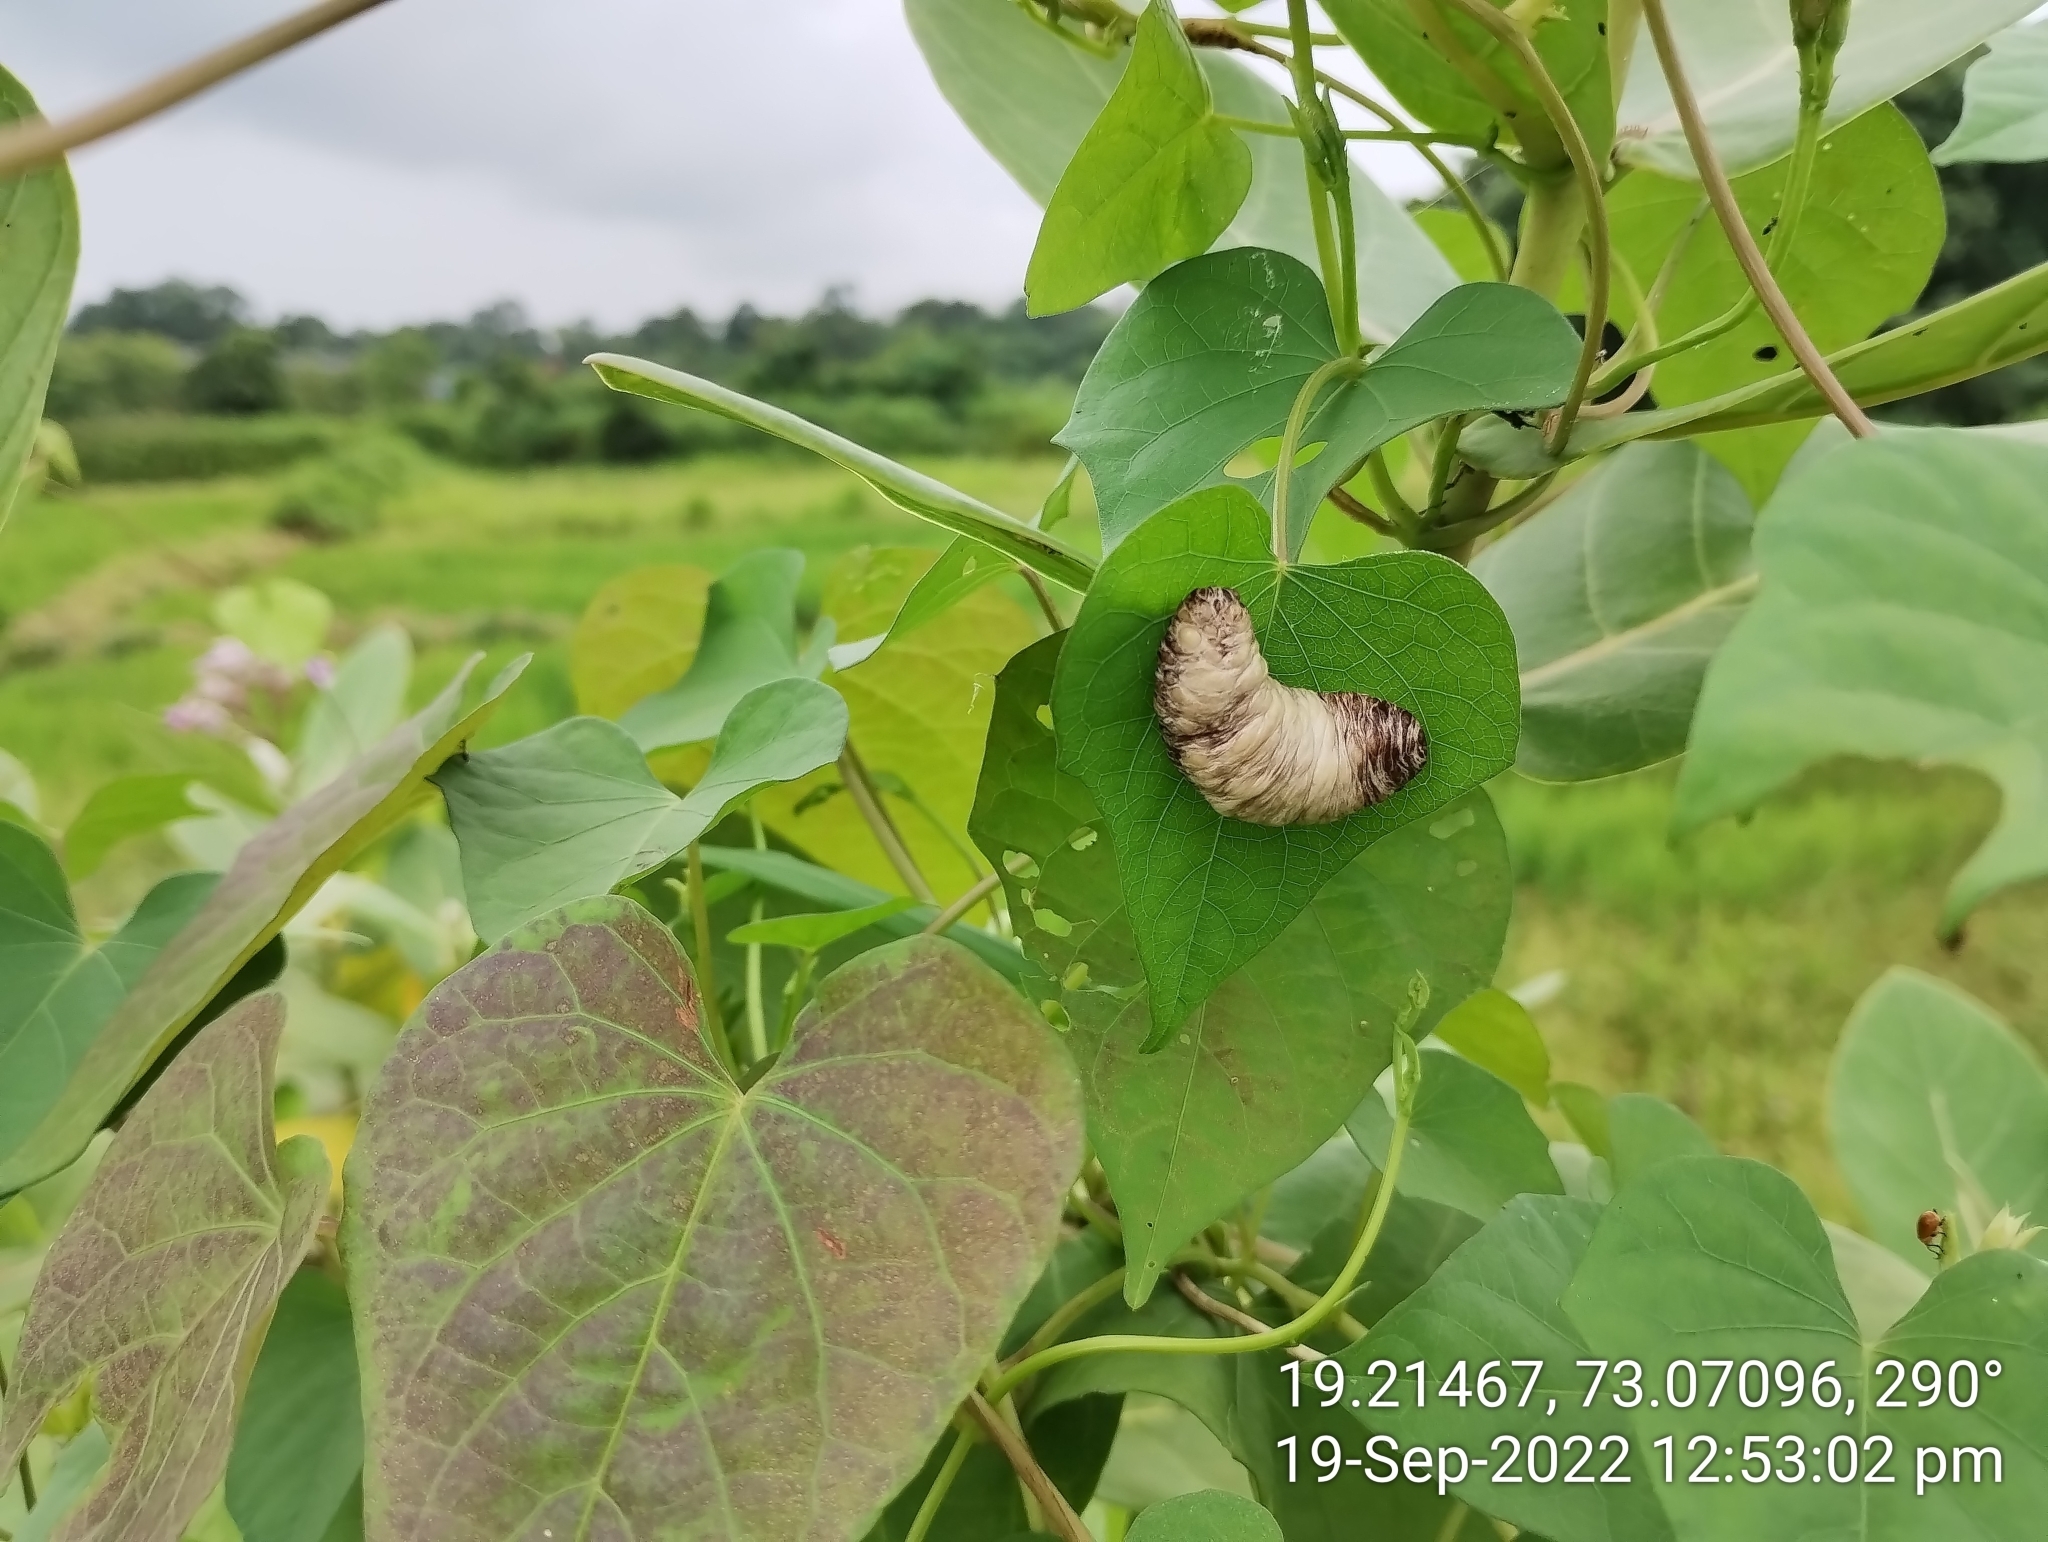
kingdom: Animalia
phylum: Mollusca
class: Gastropoda
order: Systellommatophora
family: Veronicellidae
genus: Laevicaulis
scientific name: Laevicaulis haroldi
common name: Caterpillar slug
